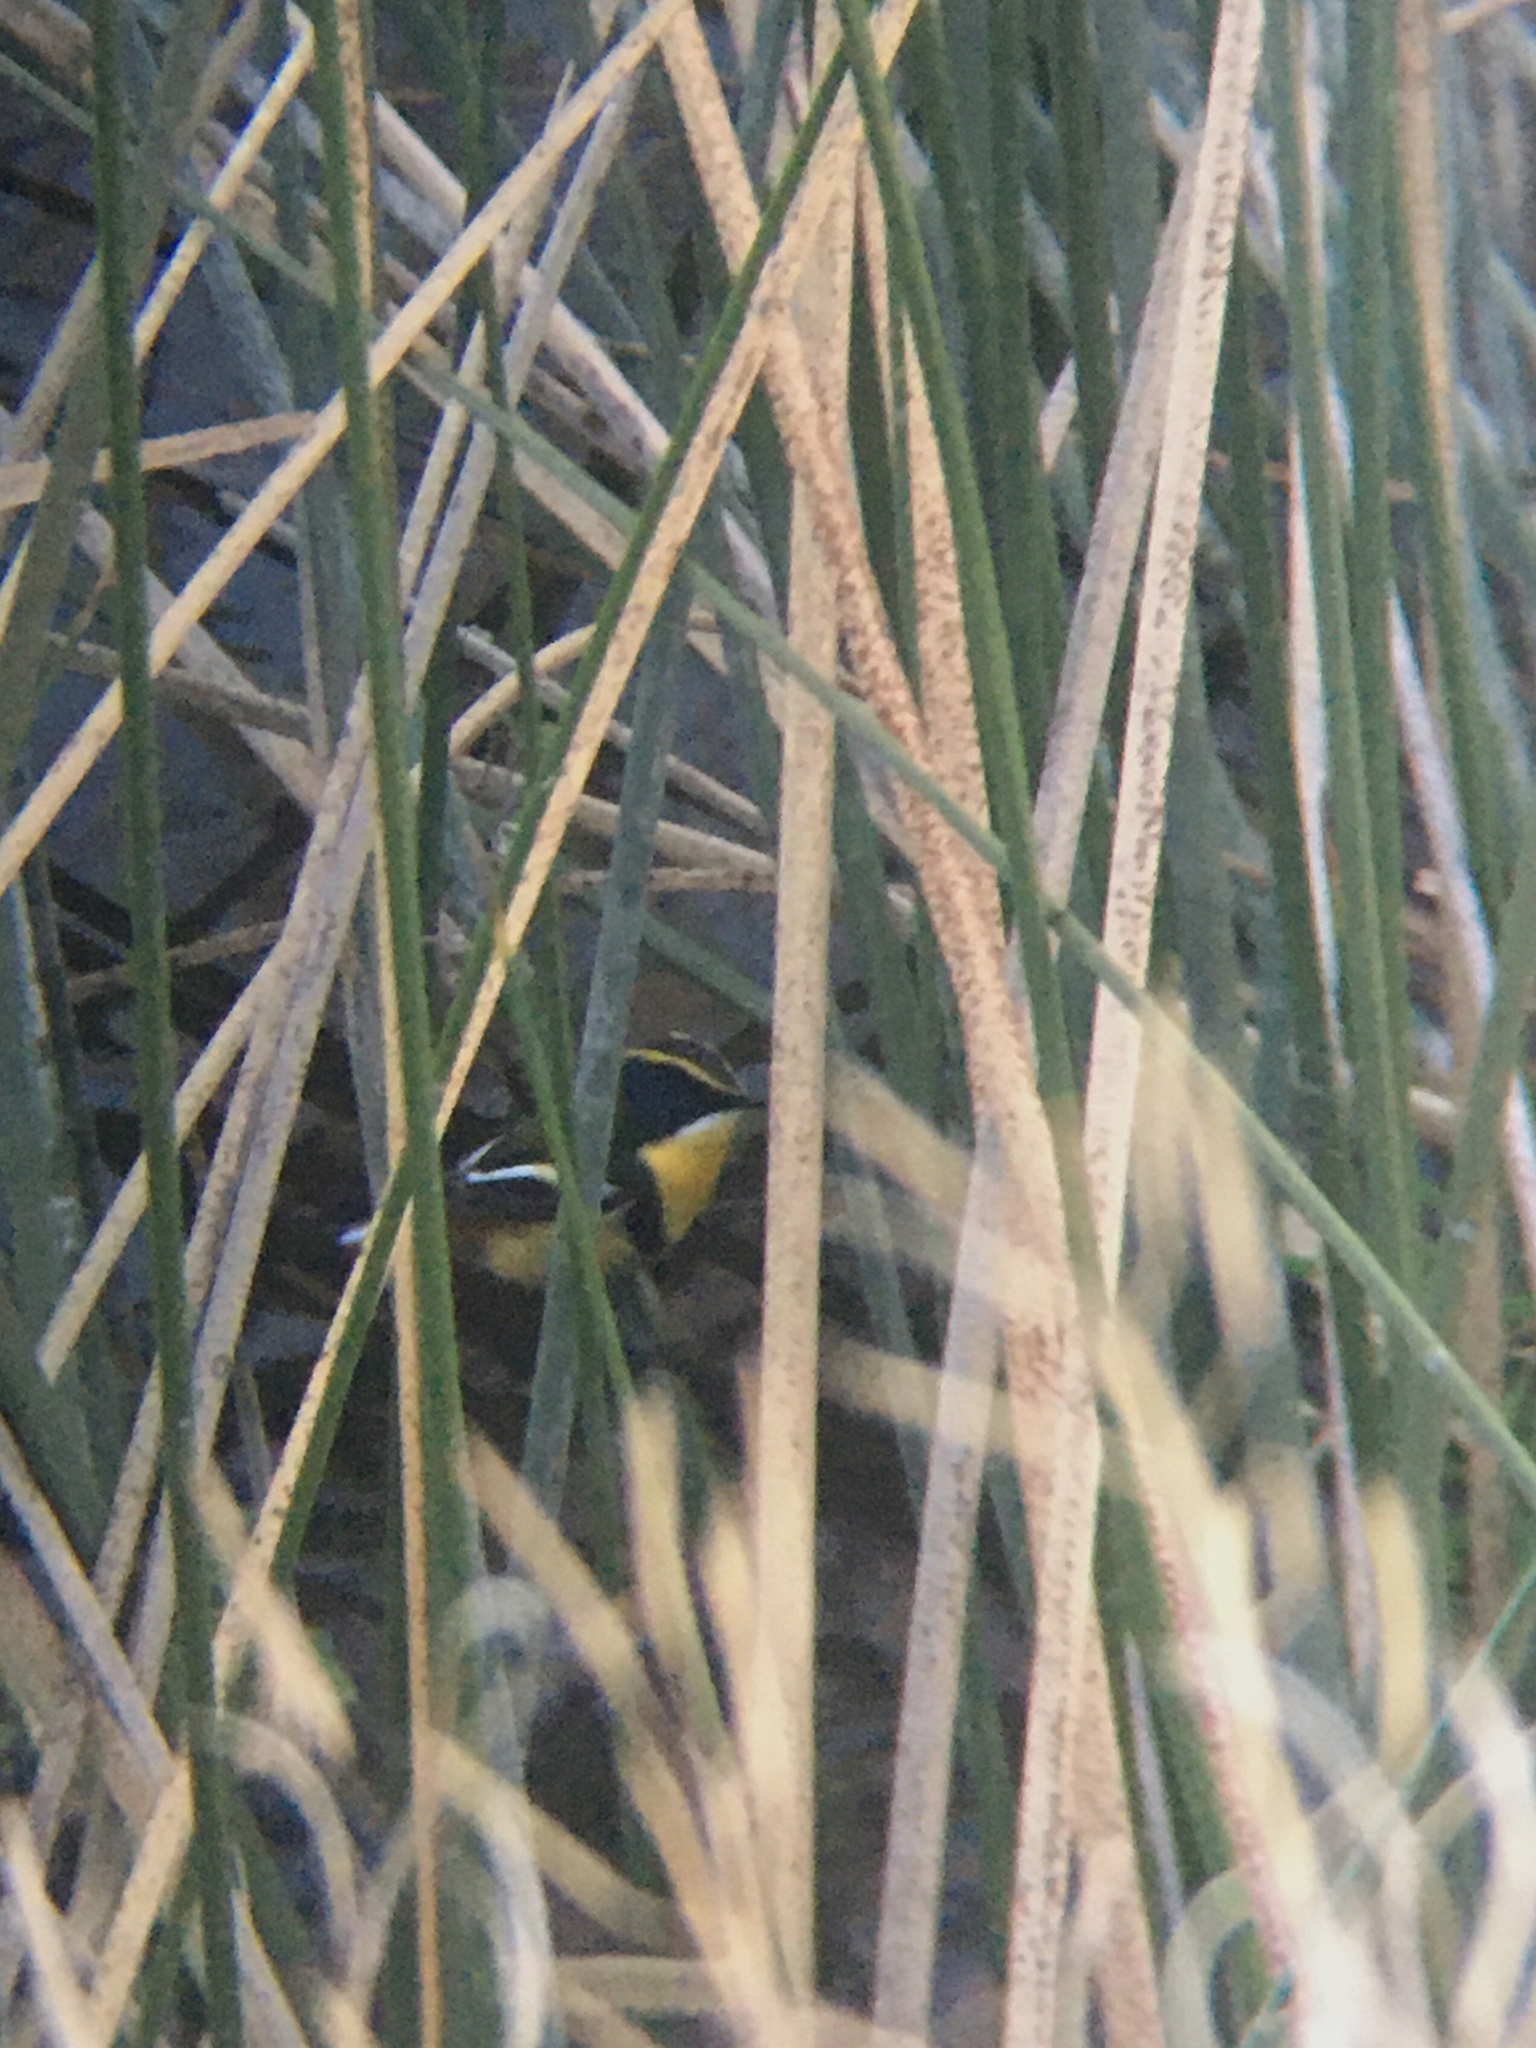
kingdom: Animalia
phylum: Chordata
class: Aves
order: Passeriformes
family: Tyrannidae
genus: Tachuris
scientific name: Tachuris rubrigastra
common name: Many-colored rush tyrant
